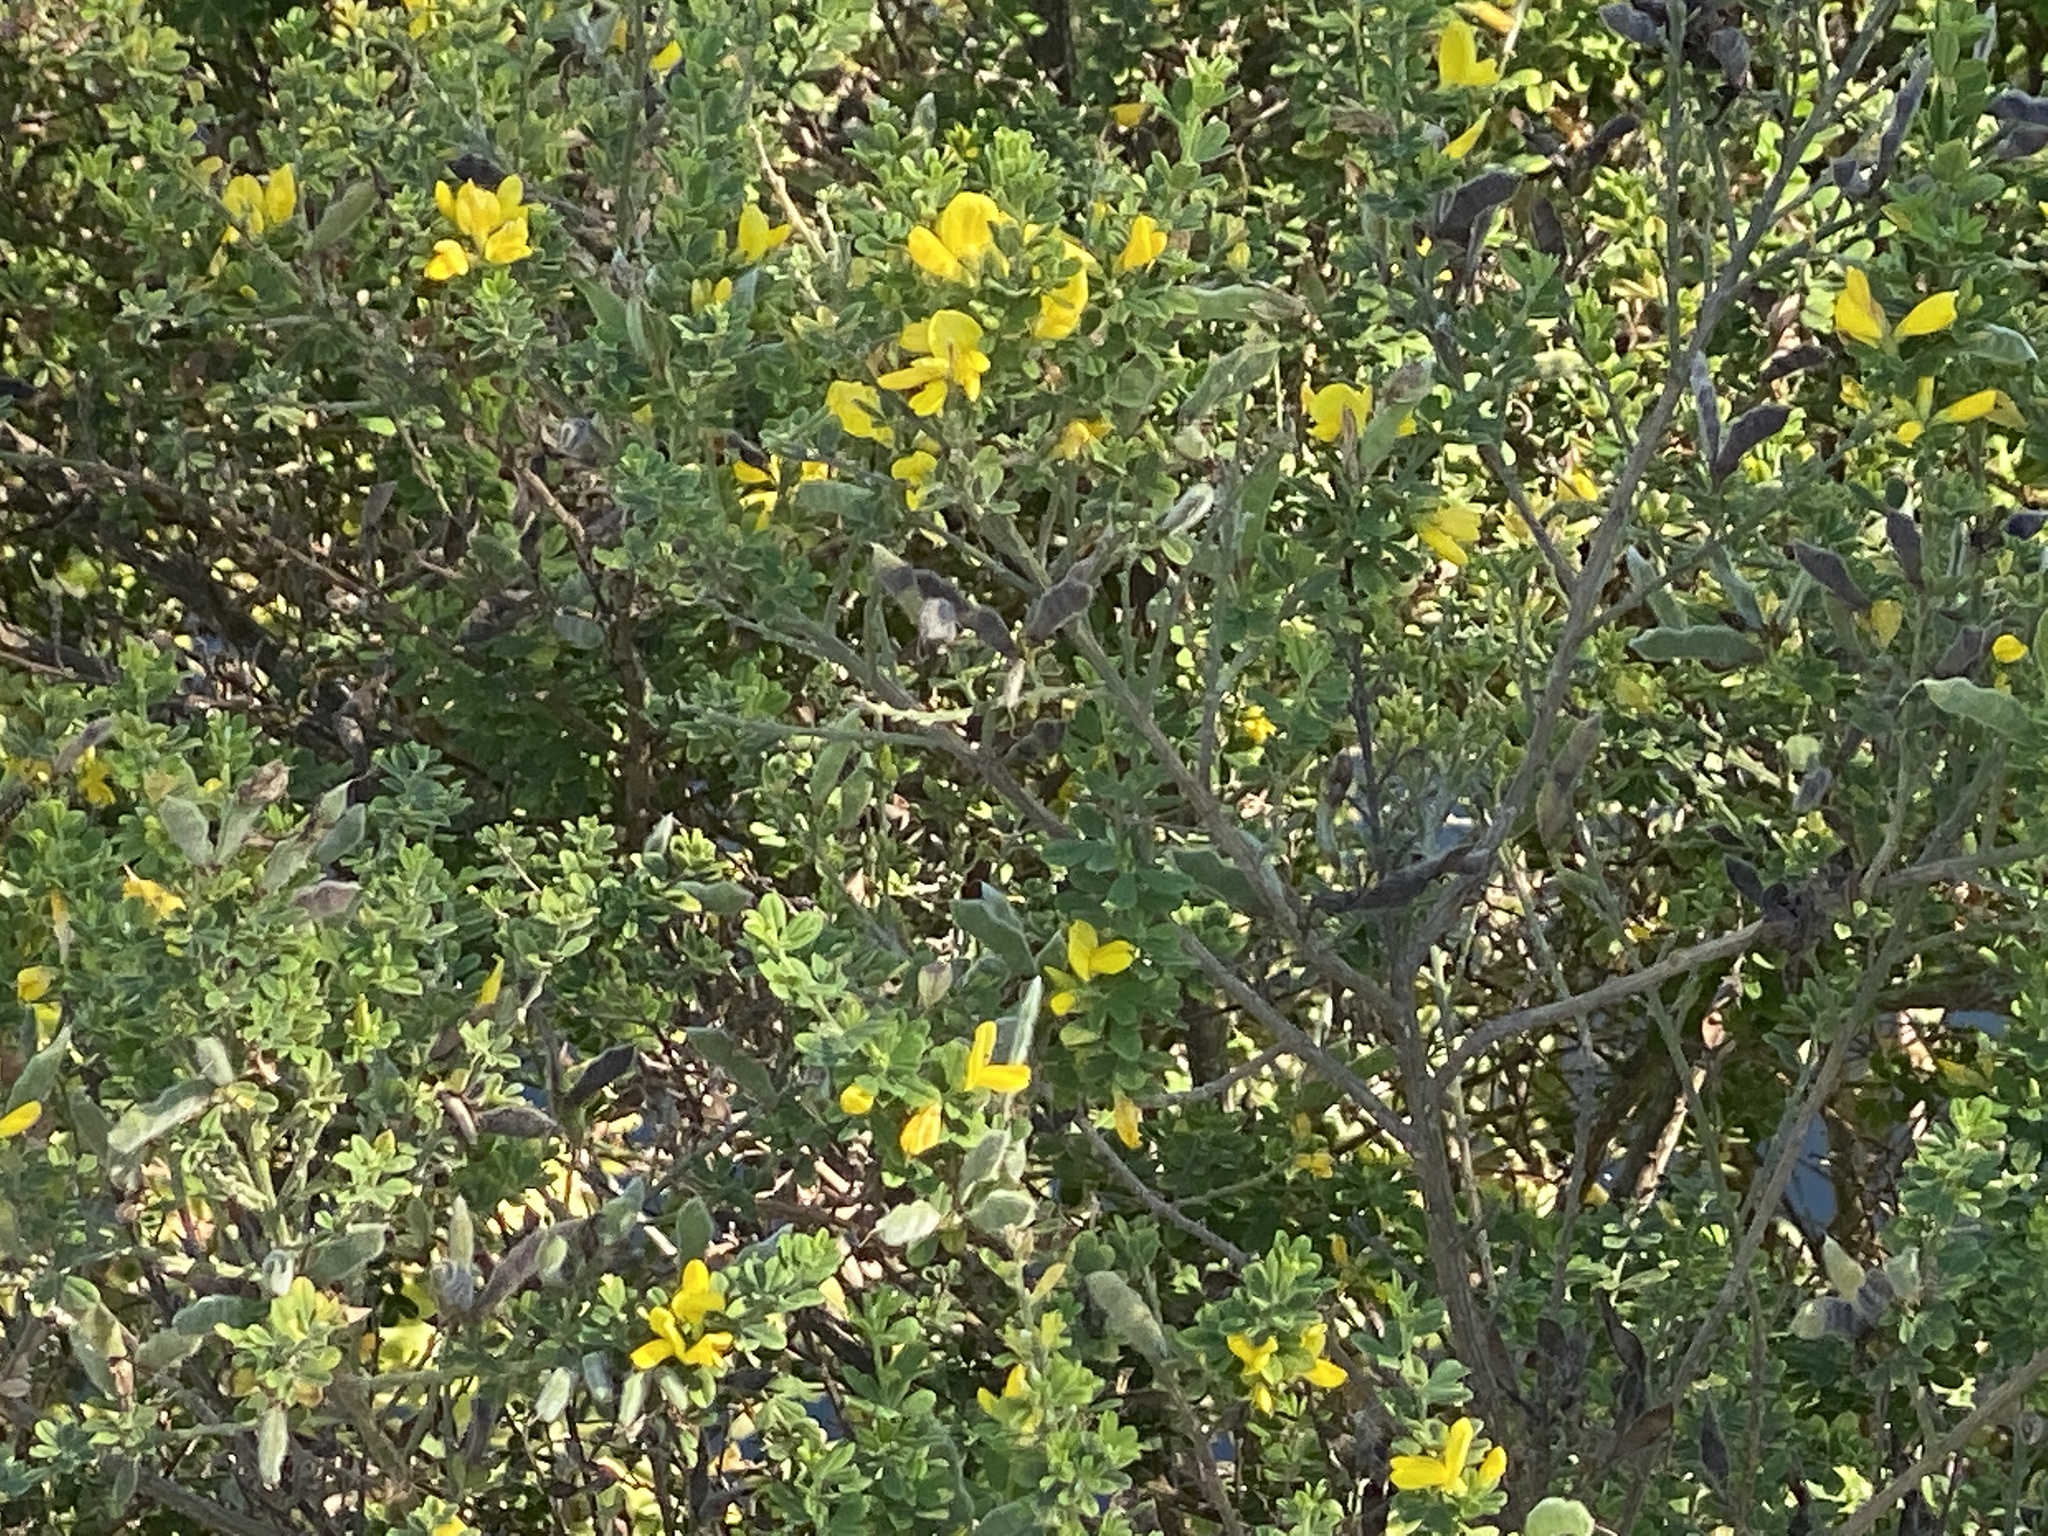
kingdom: Plantae
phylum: Tracheophyta
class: Magnoliopsida
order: Fabales
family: Fabaceae
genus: Genista
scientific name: Genista monspessulana
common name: Montpellier broom
